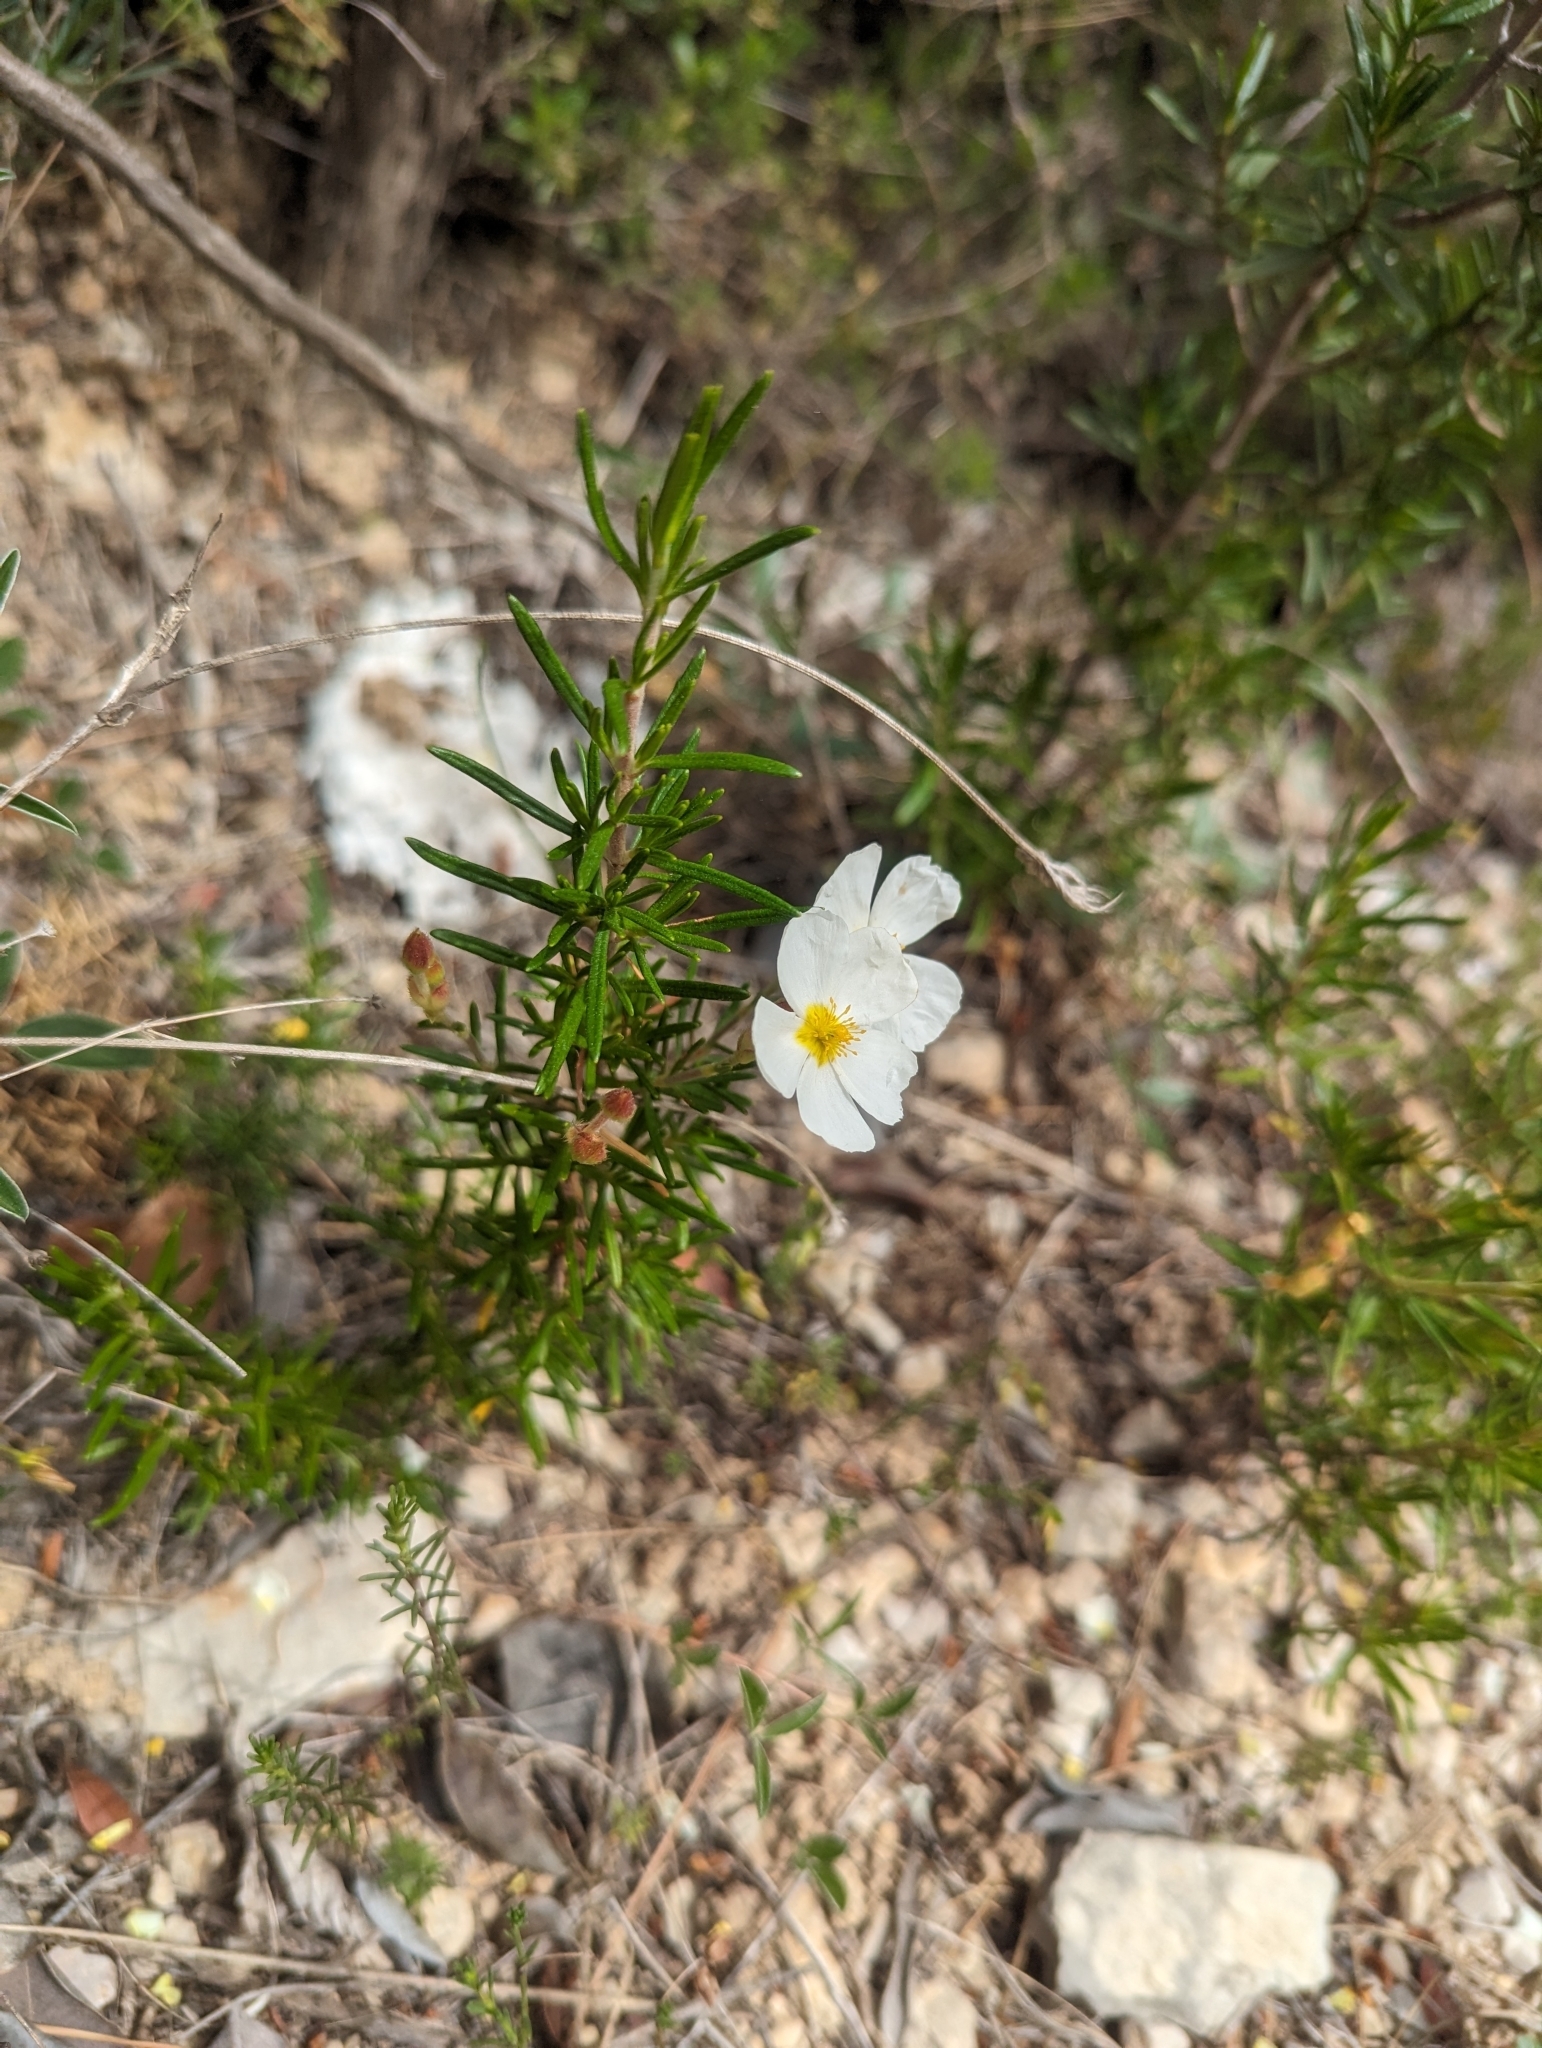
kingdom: Plantae
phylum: Tracheophyta
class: Magnoliopsida
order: Malvales
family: Cistaceae
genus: Cistus
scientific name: Cistus clusii
